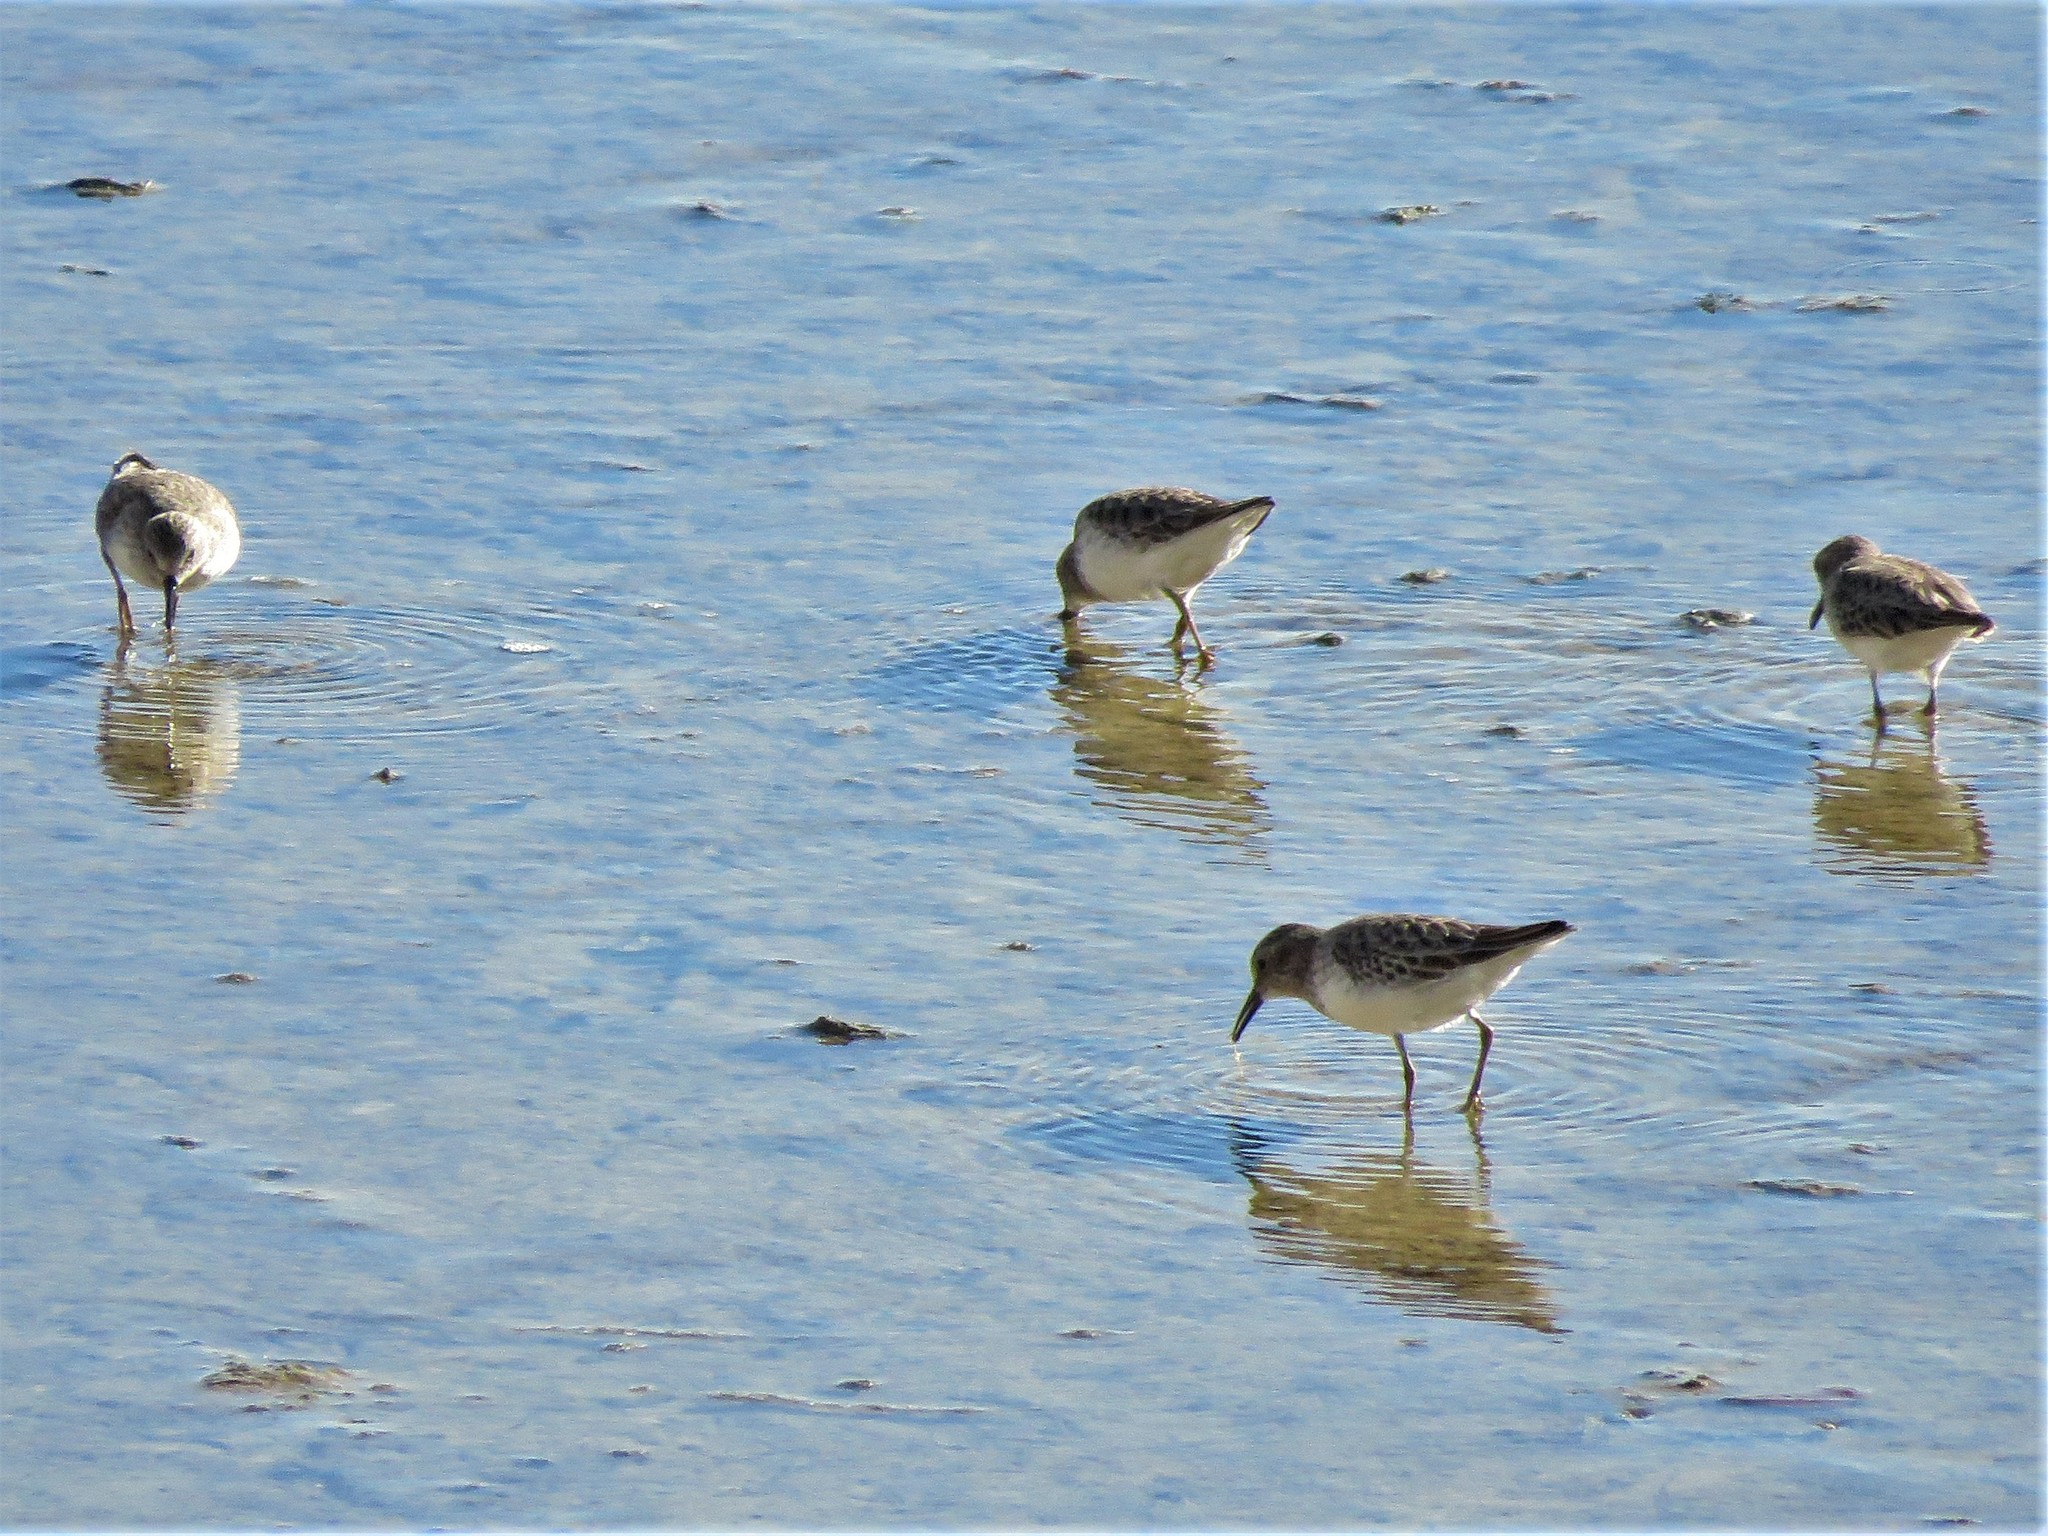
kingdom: Animalia
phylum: Chordata
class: Aves
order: Charadriiformes
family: Scolopacidae
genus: Calidris
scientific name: Calidris minutilla
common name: Least sandpiper
